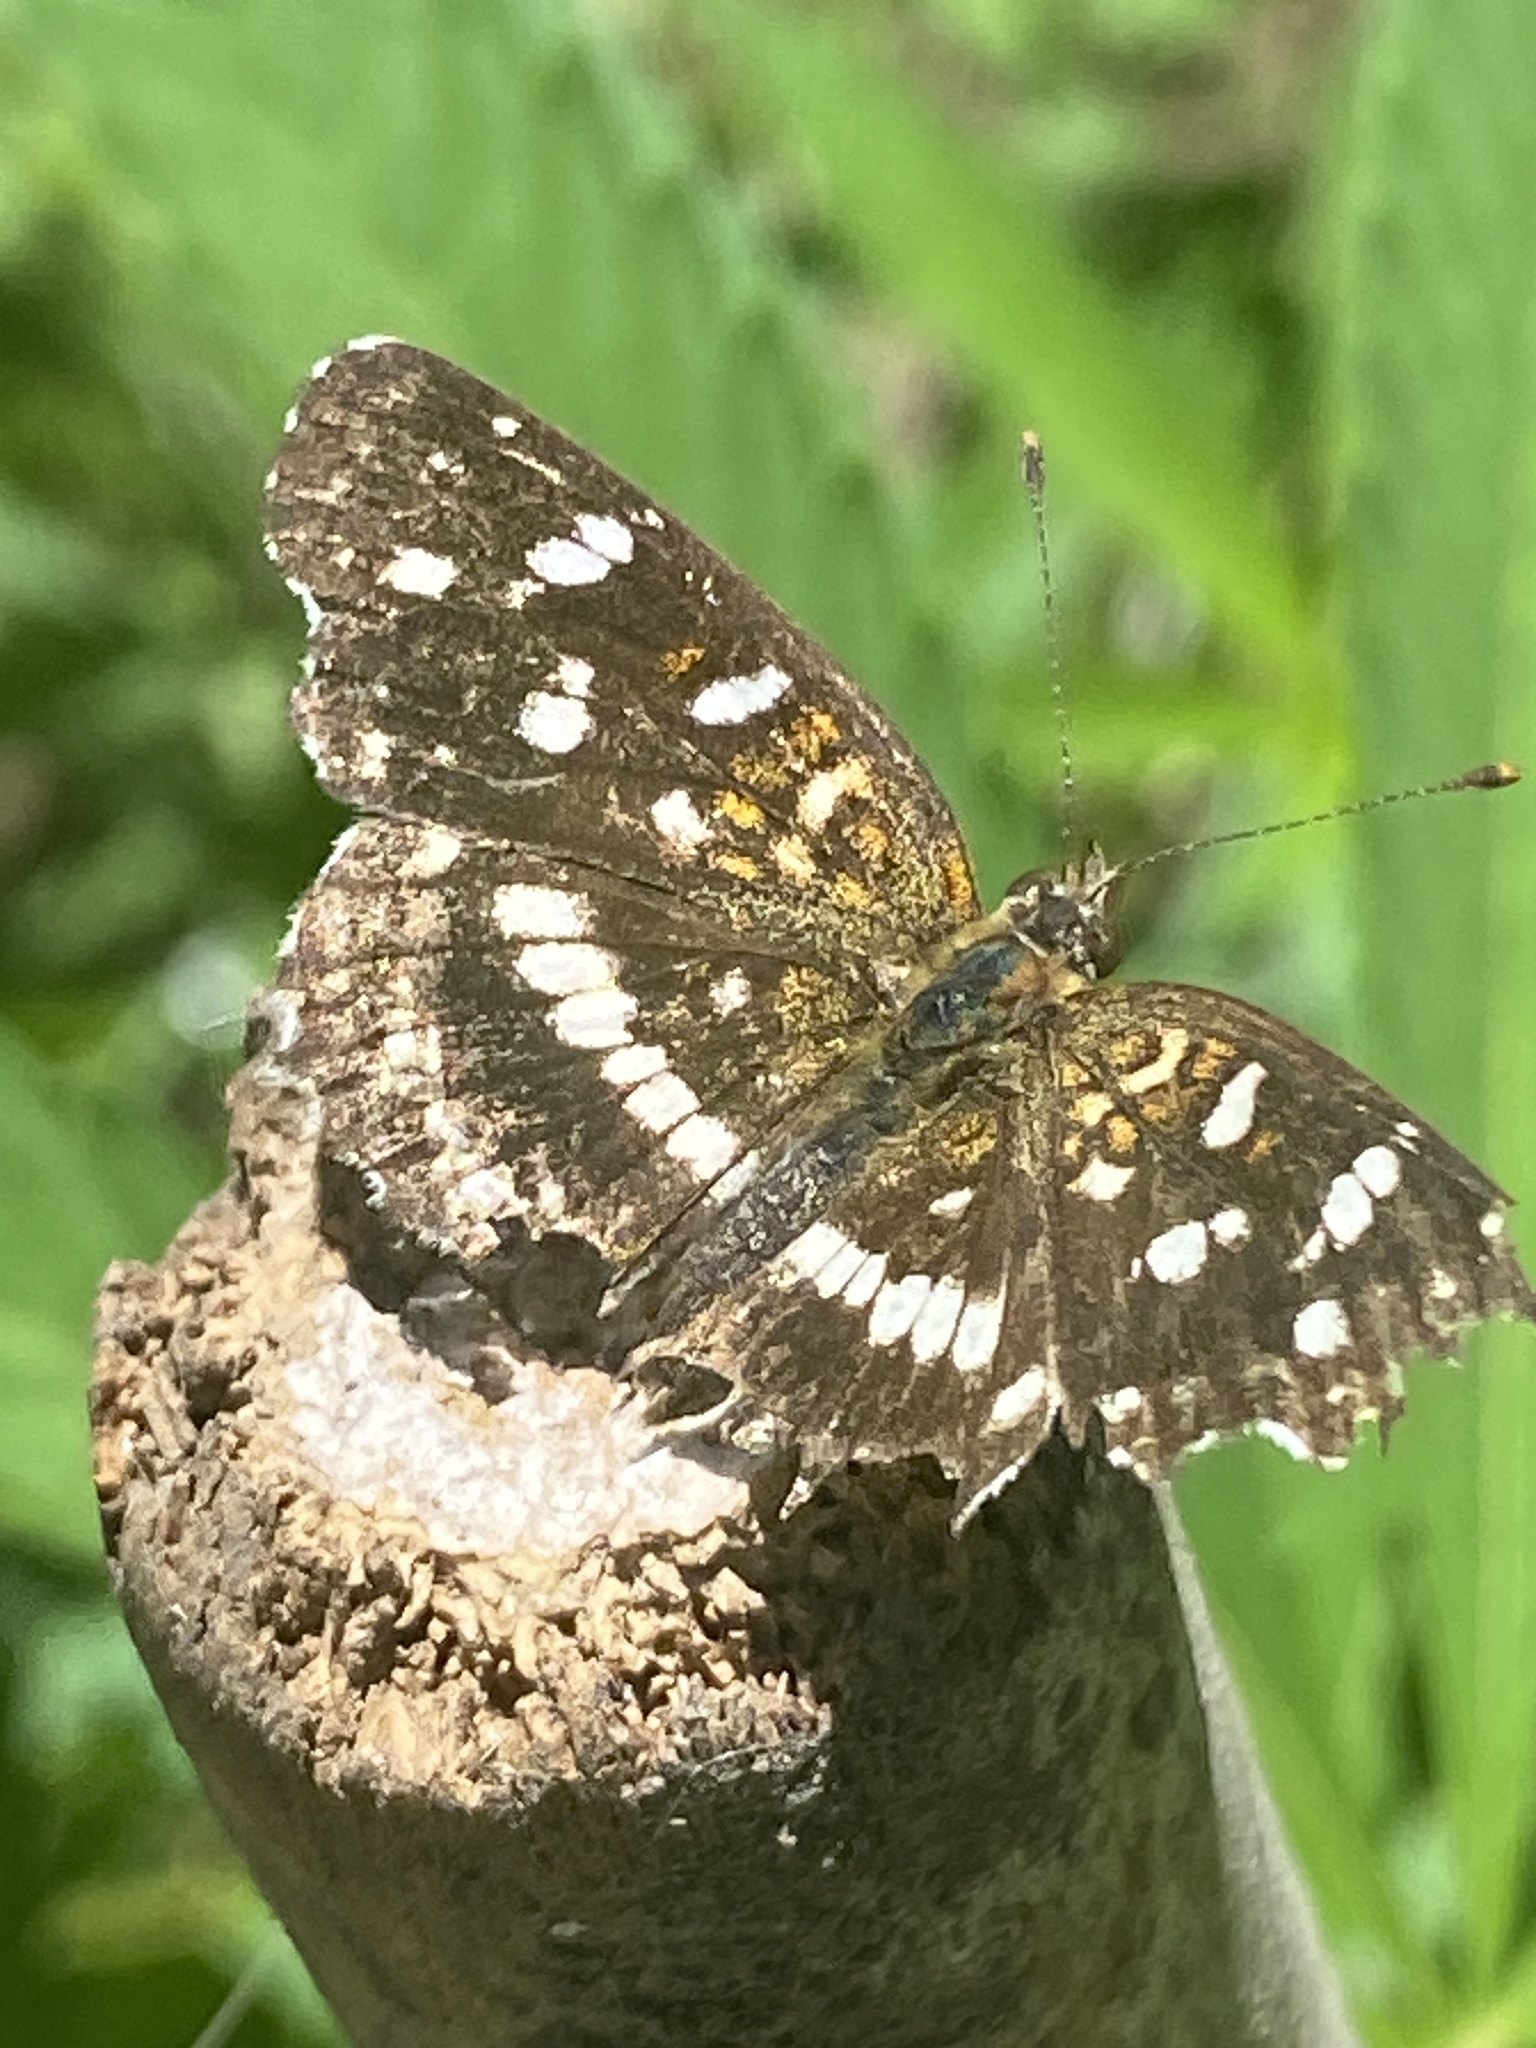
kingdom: Animalia
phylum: Arthropoda
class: Insecta
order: Lepidoptera
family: Nymphalidae
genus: Ortilia
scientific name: Ortilia ithra
